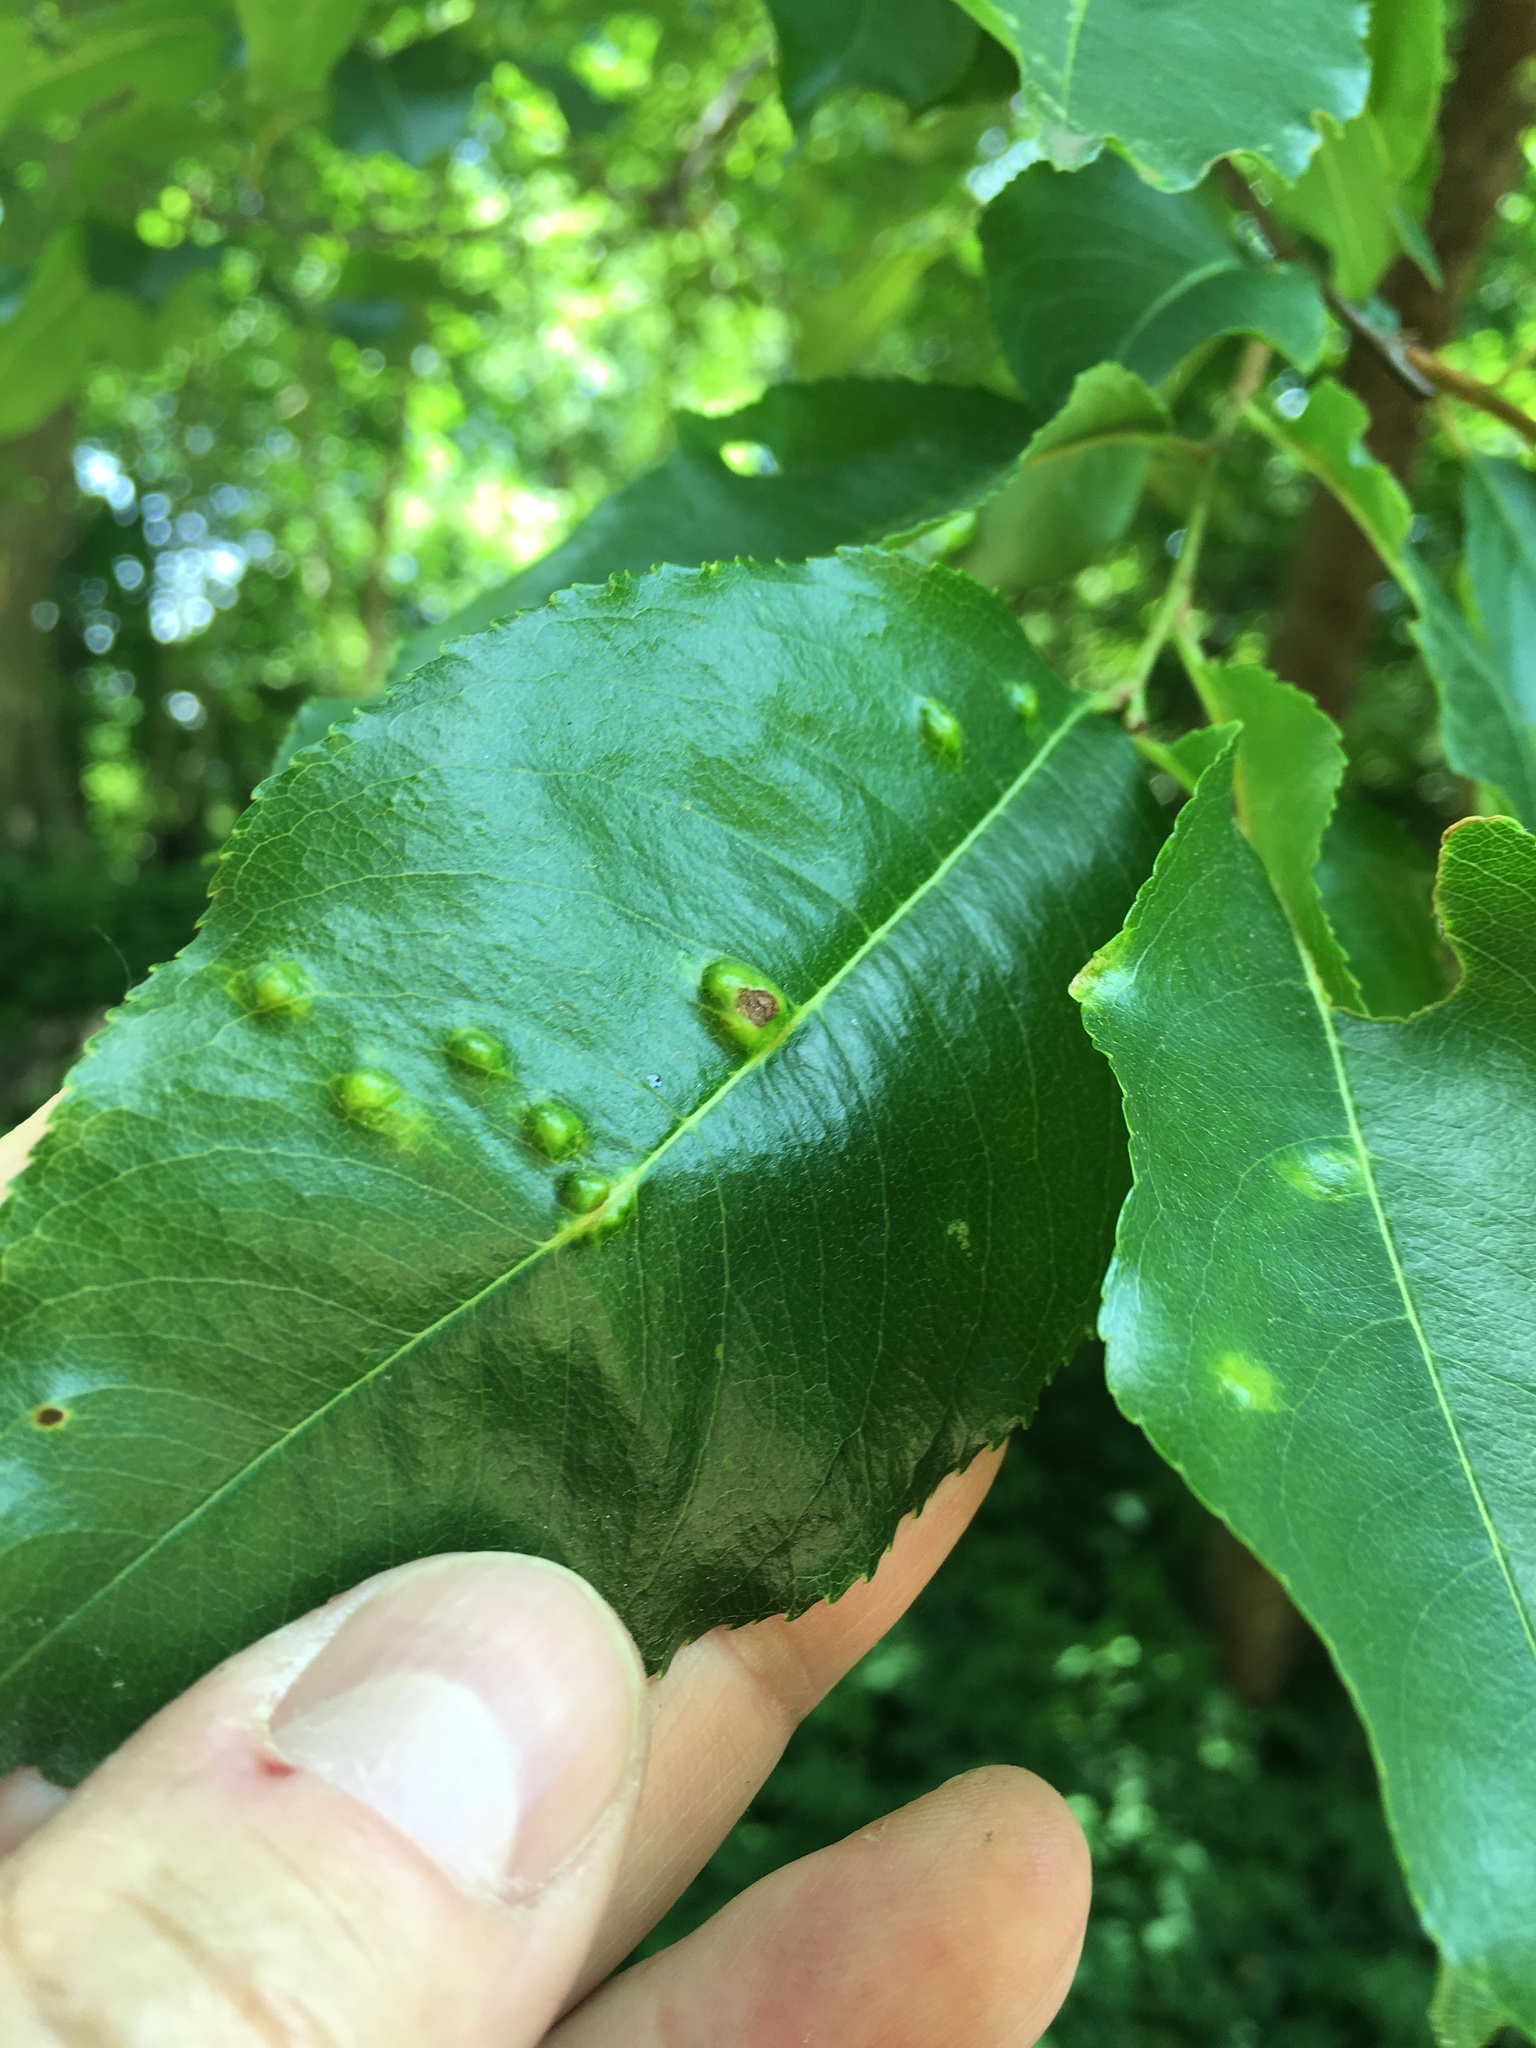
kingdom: Plantae
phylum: Tracheophyta
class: Magnoliopsida
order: Rosales
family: Rosaceae
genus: Prunus
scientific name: Prunus serotina
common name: Black cherry
